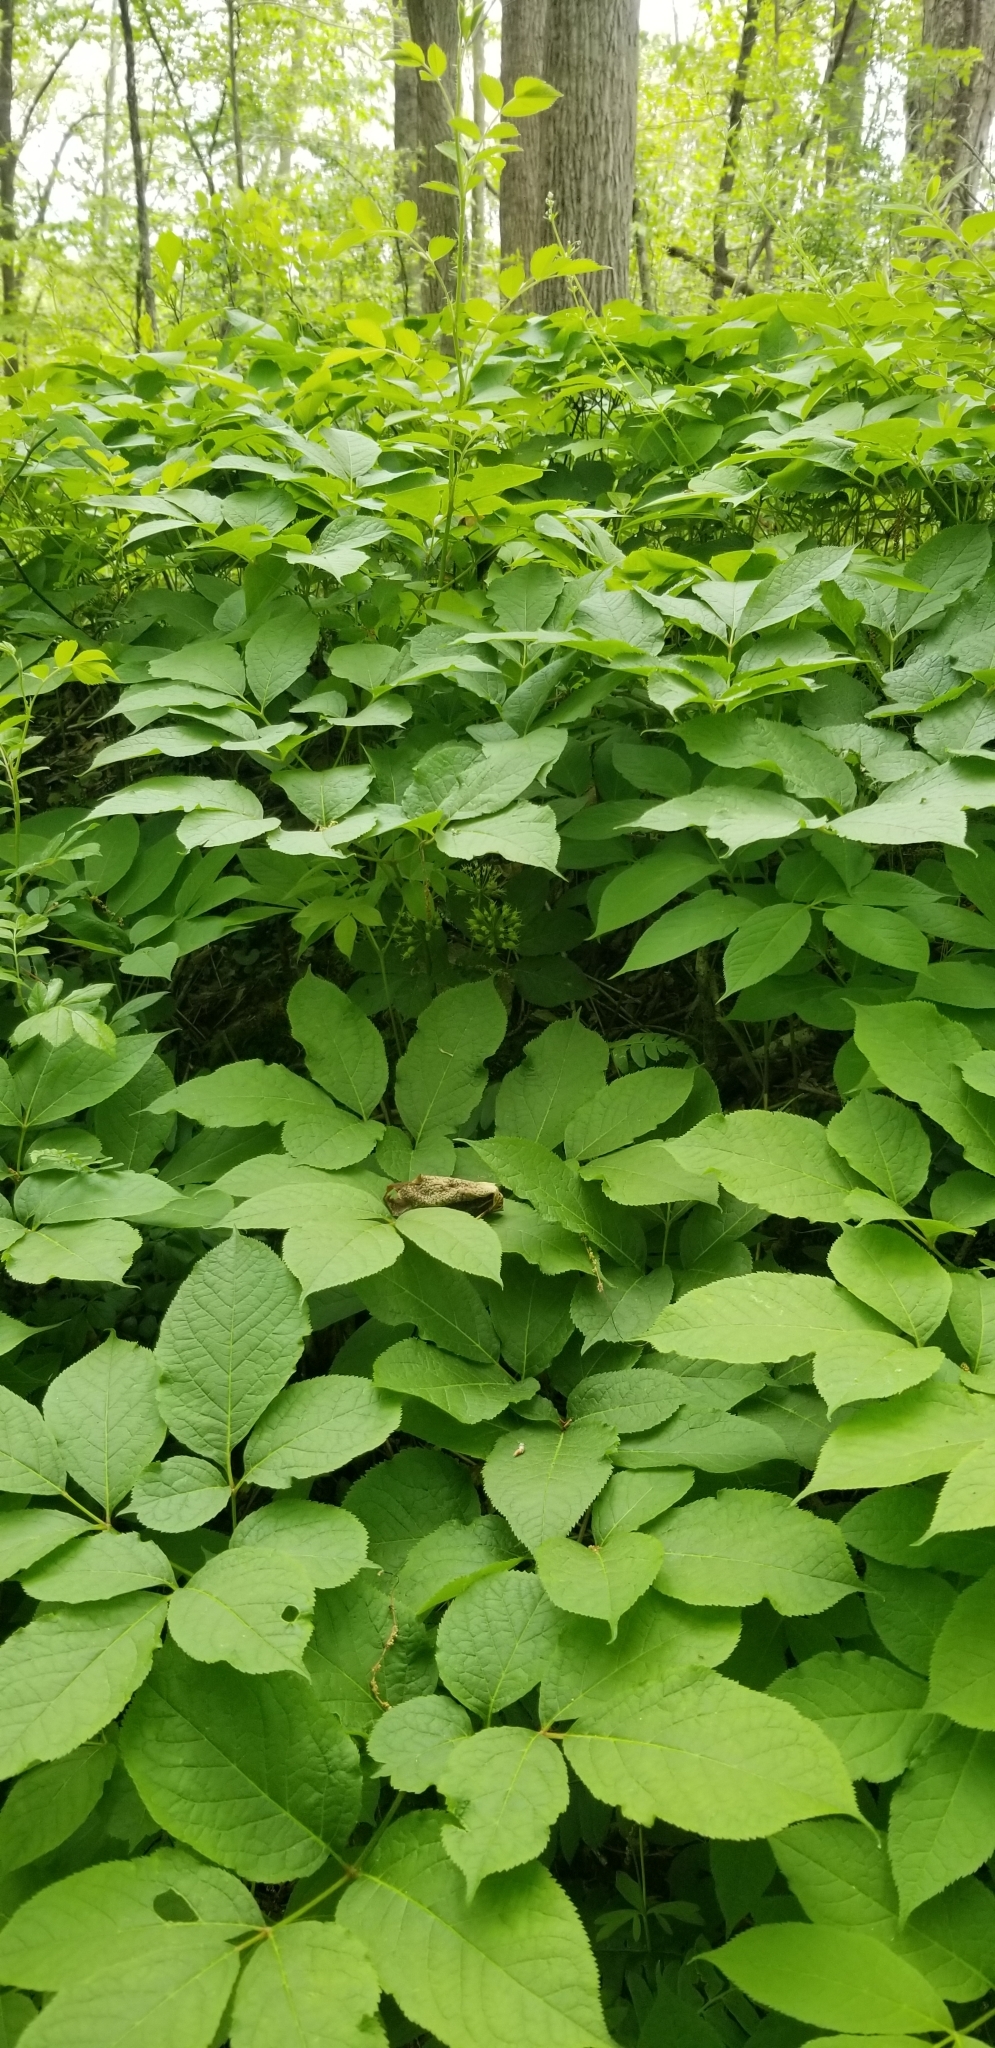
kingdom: Plantae
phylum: Tracheophyta
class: Magnoliopsida
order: Apiales
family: Araliaceae
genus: Aralia
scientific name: Aralia nudicaulis
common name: Wild sarsaparilla
